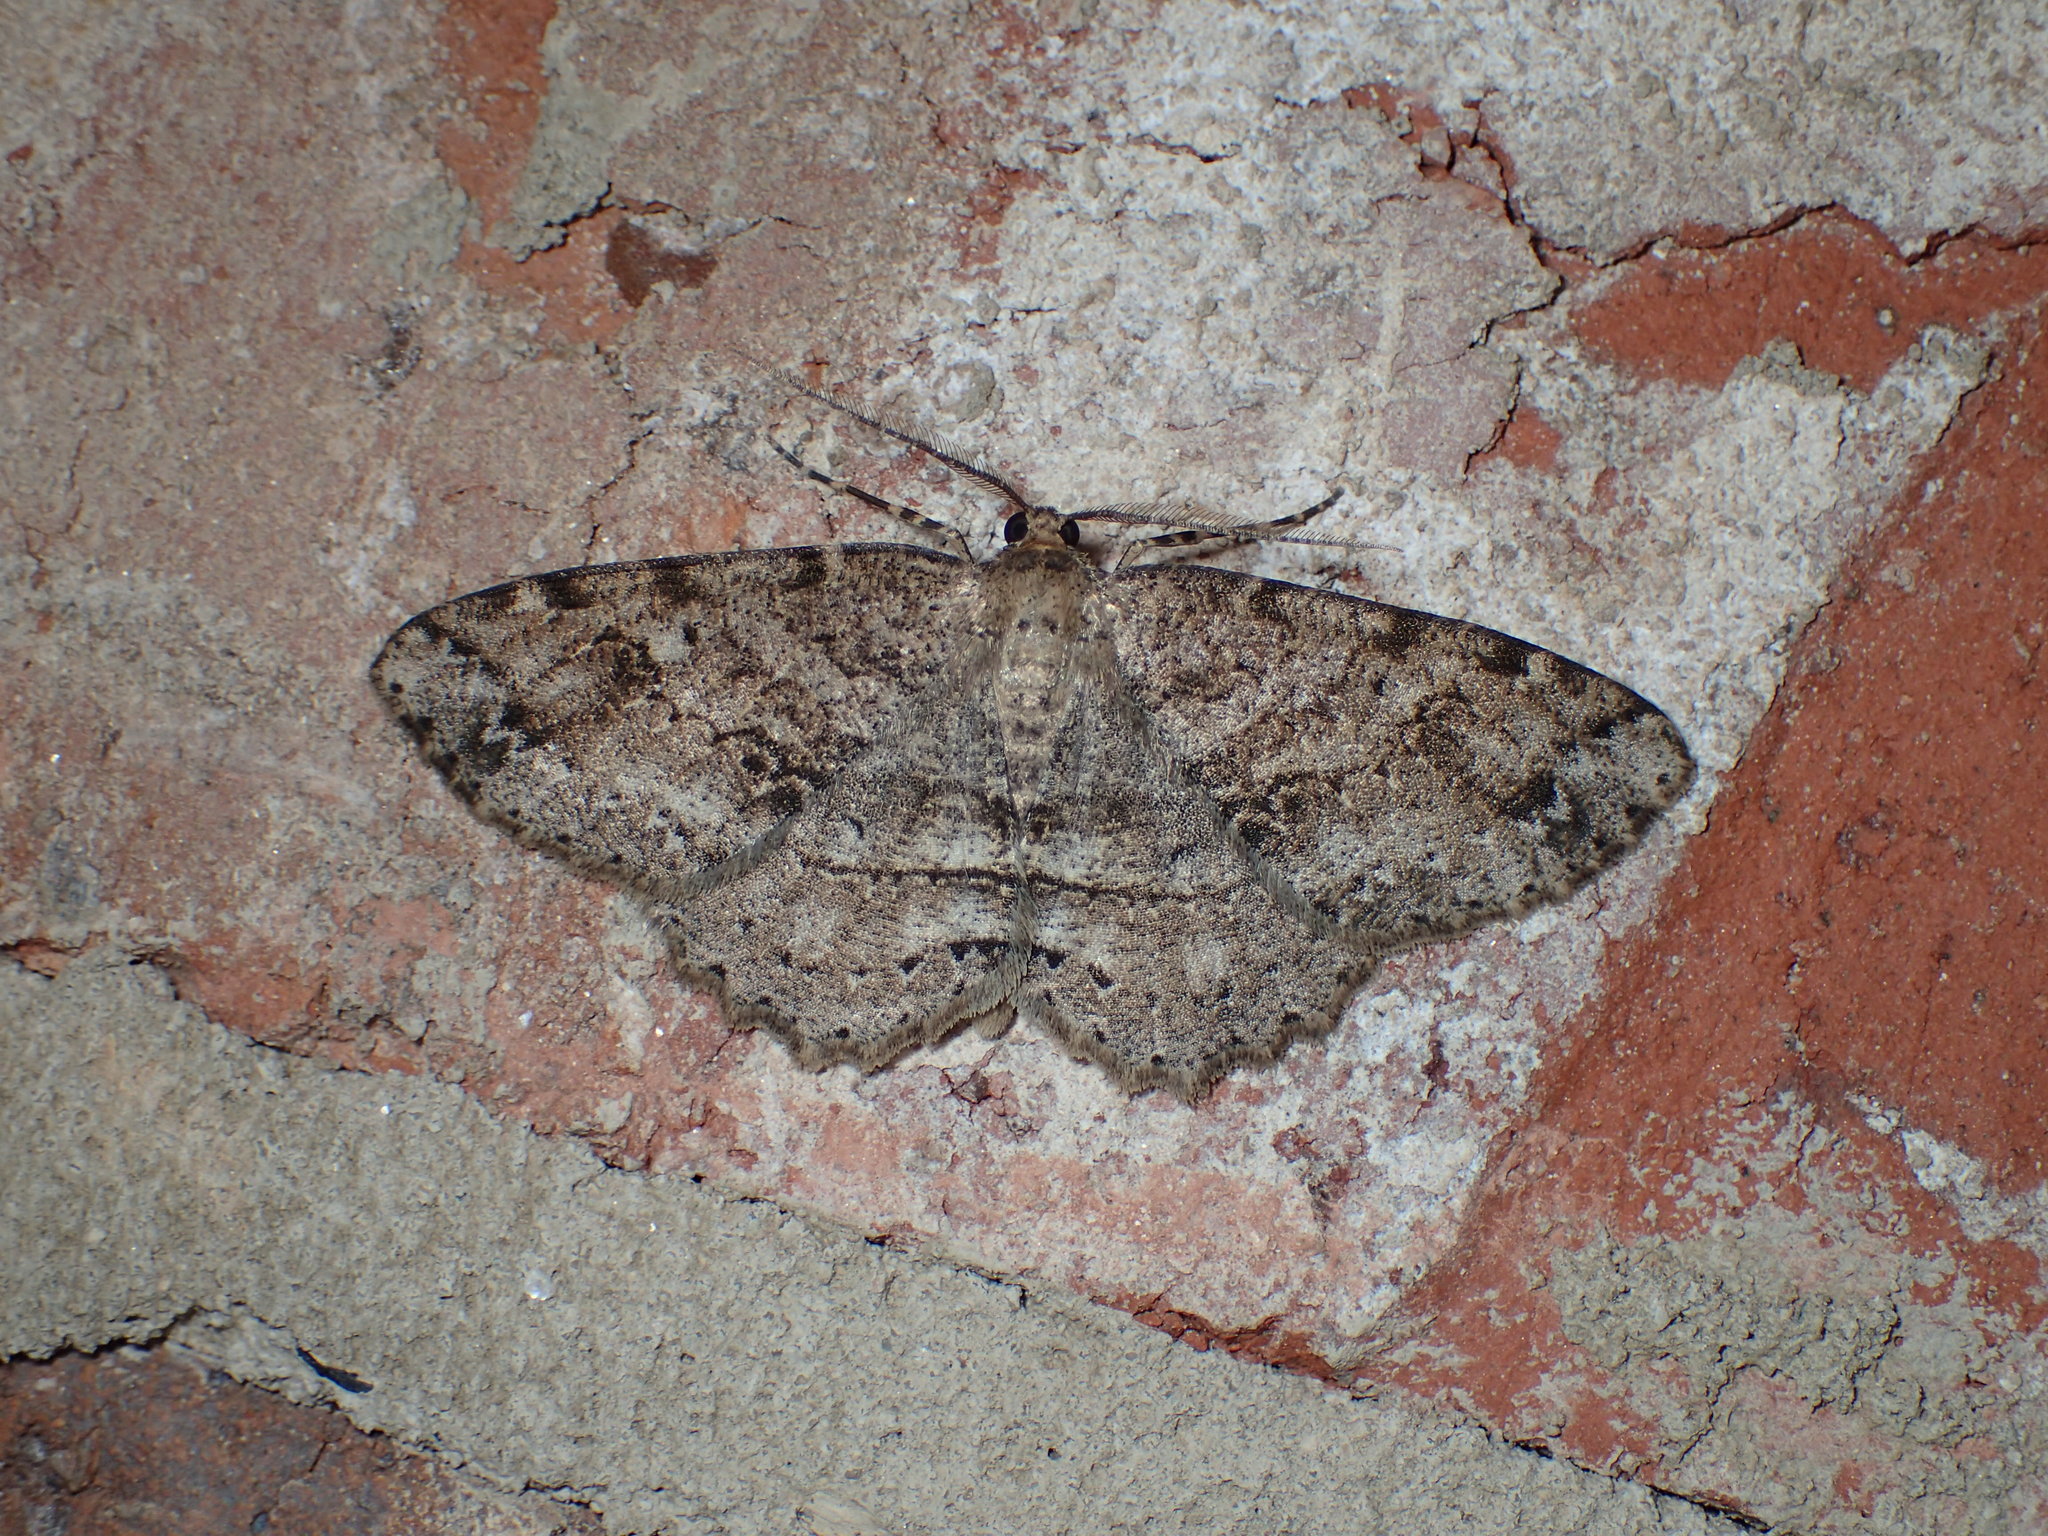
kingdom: Animalia
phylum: Arthropoda
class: Insecta
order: Lepidoptera
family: Geometridae
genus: Melanolophia
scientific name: Melanolophia canadaria
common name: Canadian melanolophia
